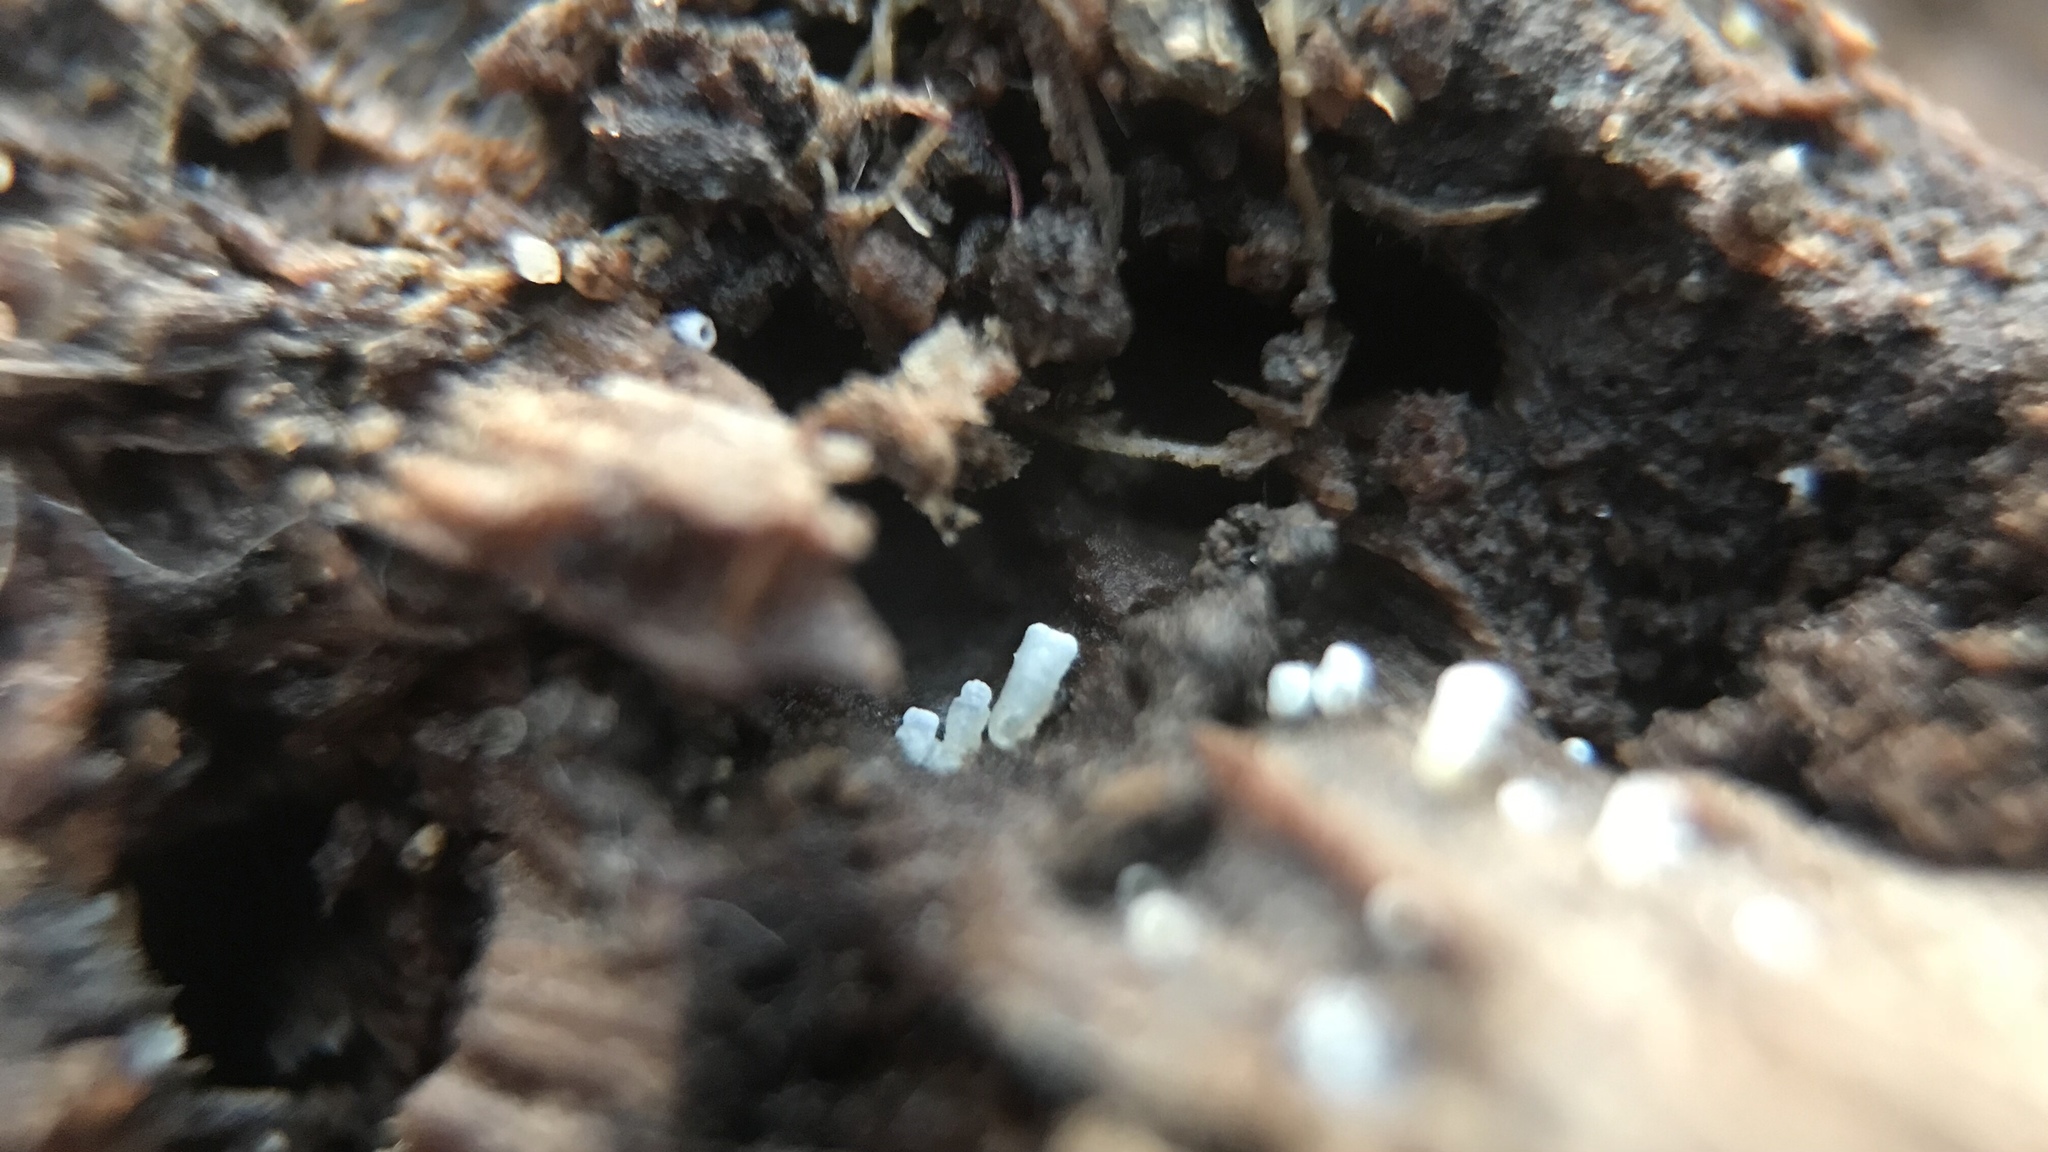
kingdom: Fungi
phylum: Basidiomycota
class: Agaricomycetes
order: Agaricales
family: Marasmiaceae
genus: Henningsomyces
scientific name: Henningsomyces candidus
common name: White tubelet
